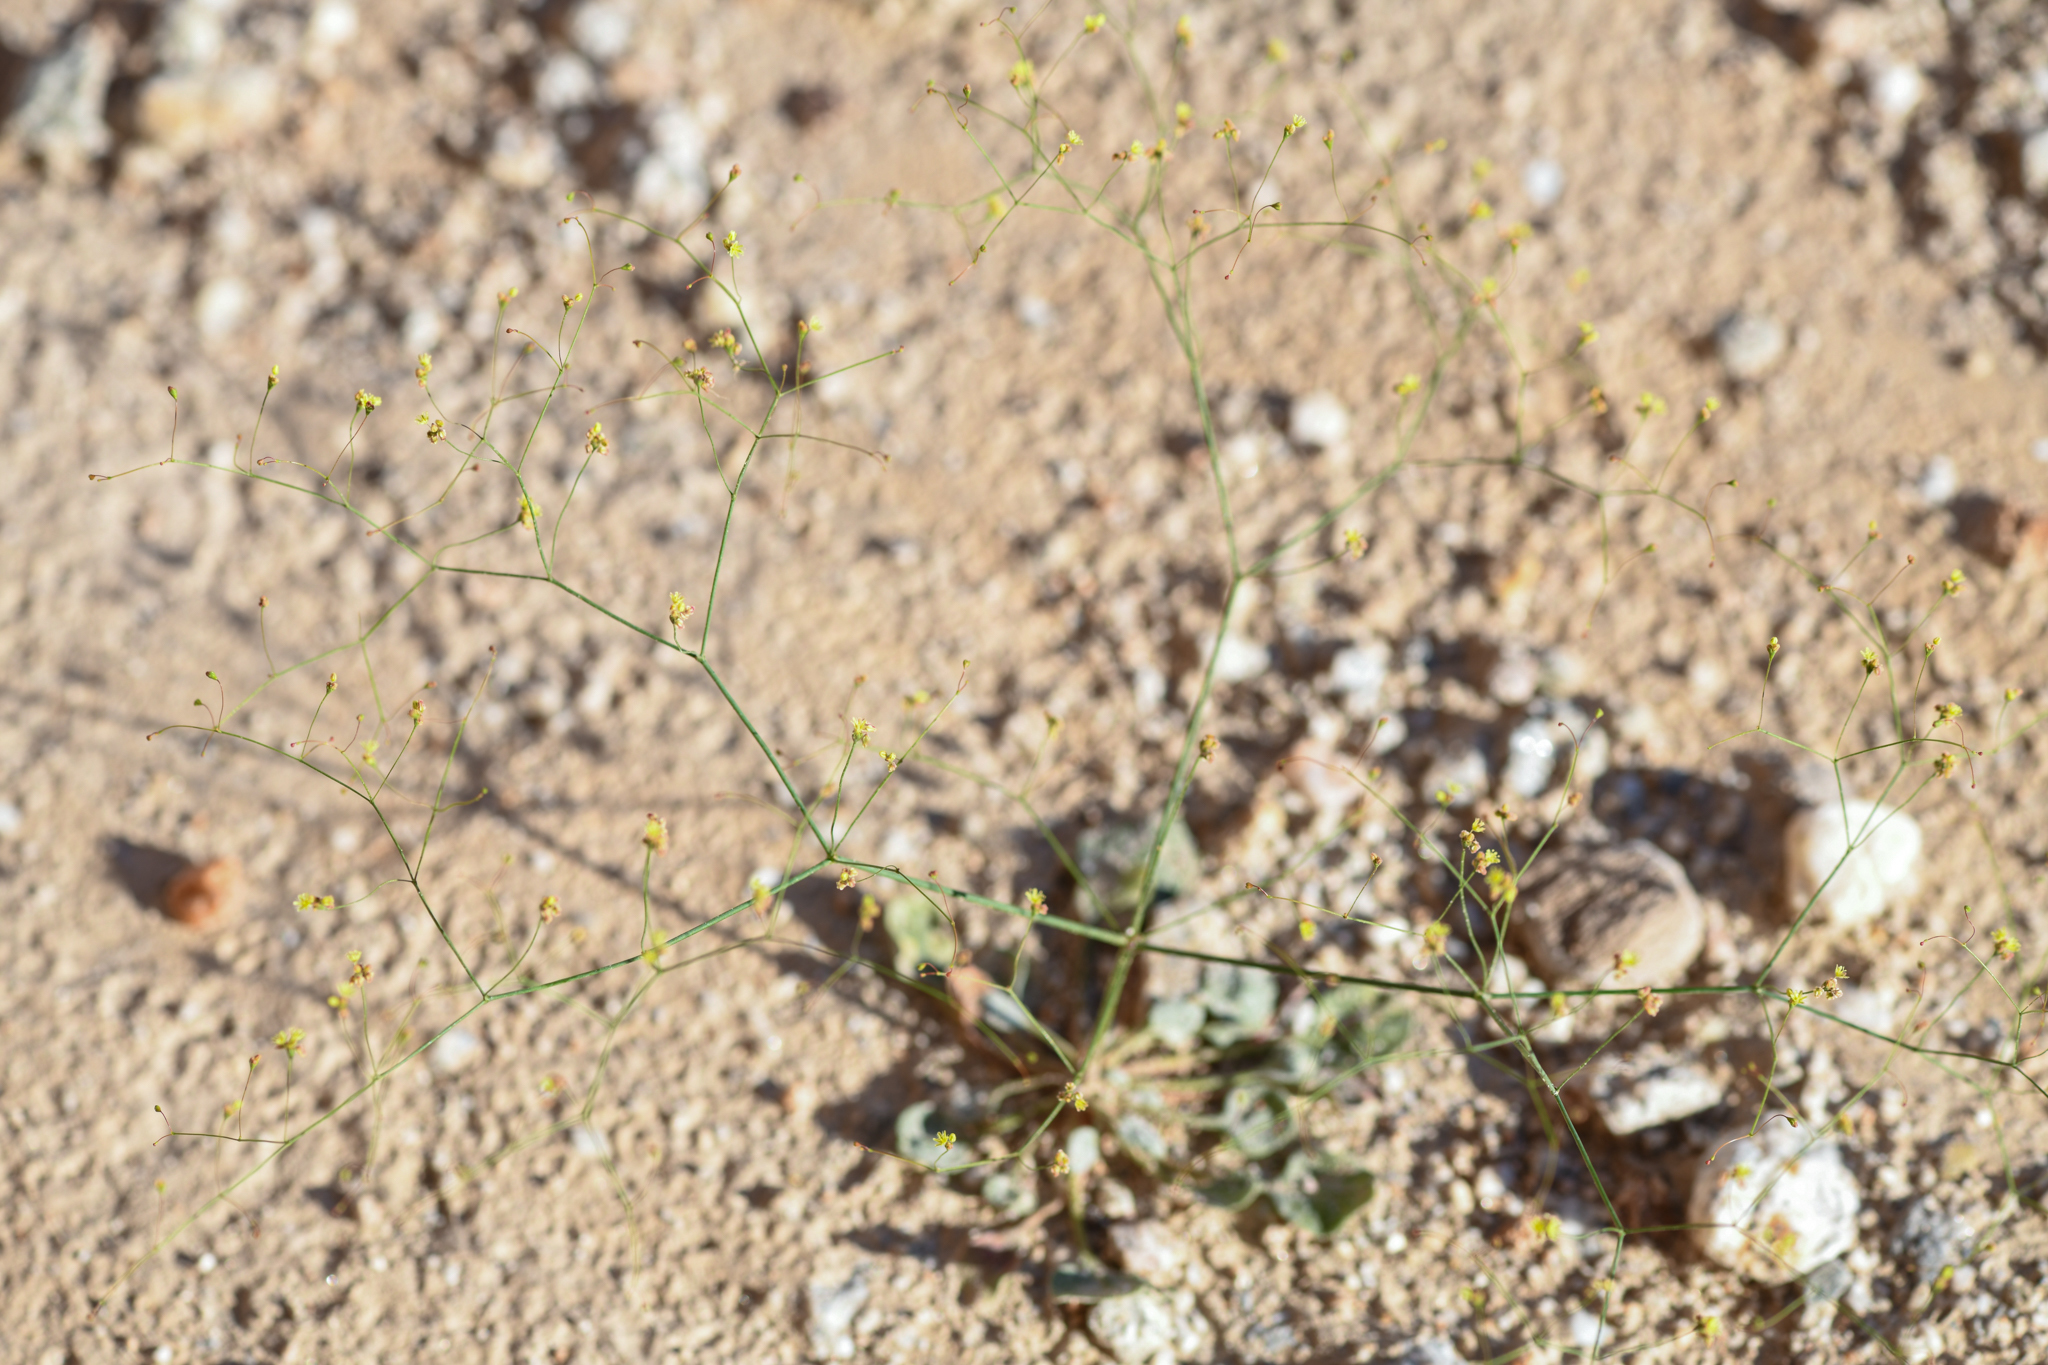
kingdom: Plantae
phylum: Tracheophyta
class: Magnoliopsida
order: Caryophyllales
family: Polygonaceae
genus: Eriogonum
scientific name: Eriogonum thomasii
